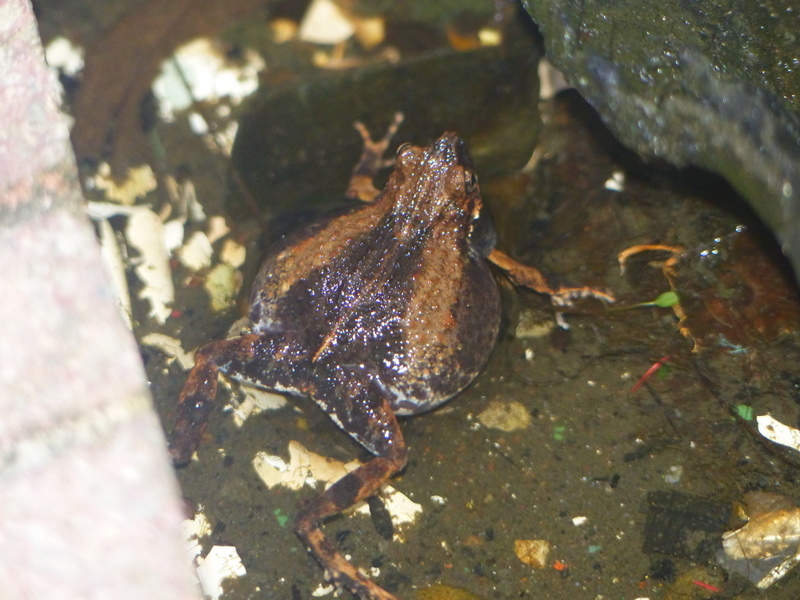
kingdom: Animalia
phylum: Chordata
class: Amphibia
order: Anura
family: Leptodactylidae
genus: Engystomops
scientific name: Engystomops pustulosus
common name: Tungara frog
